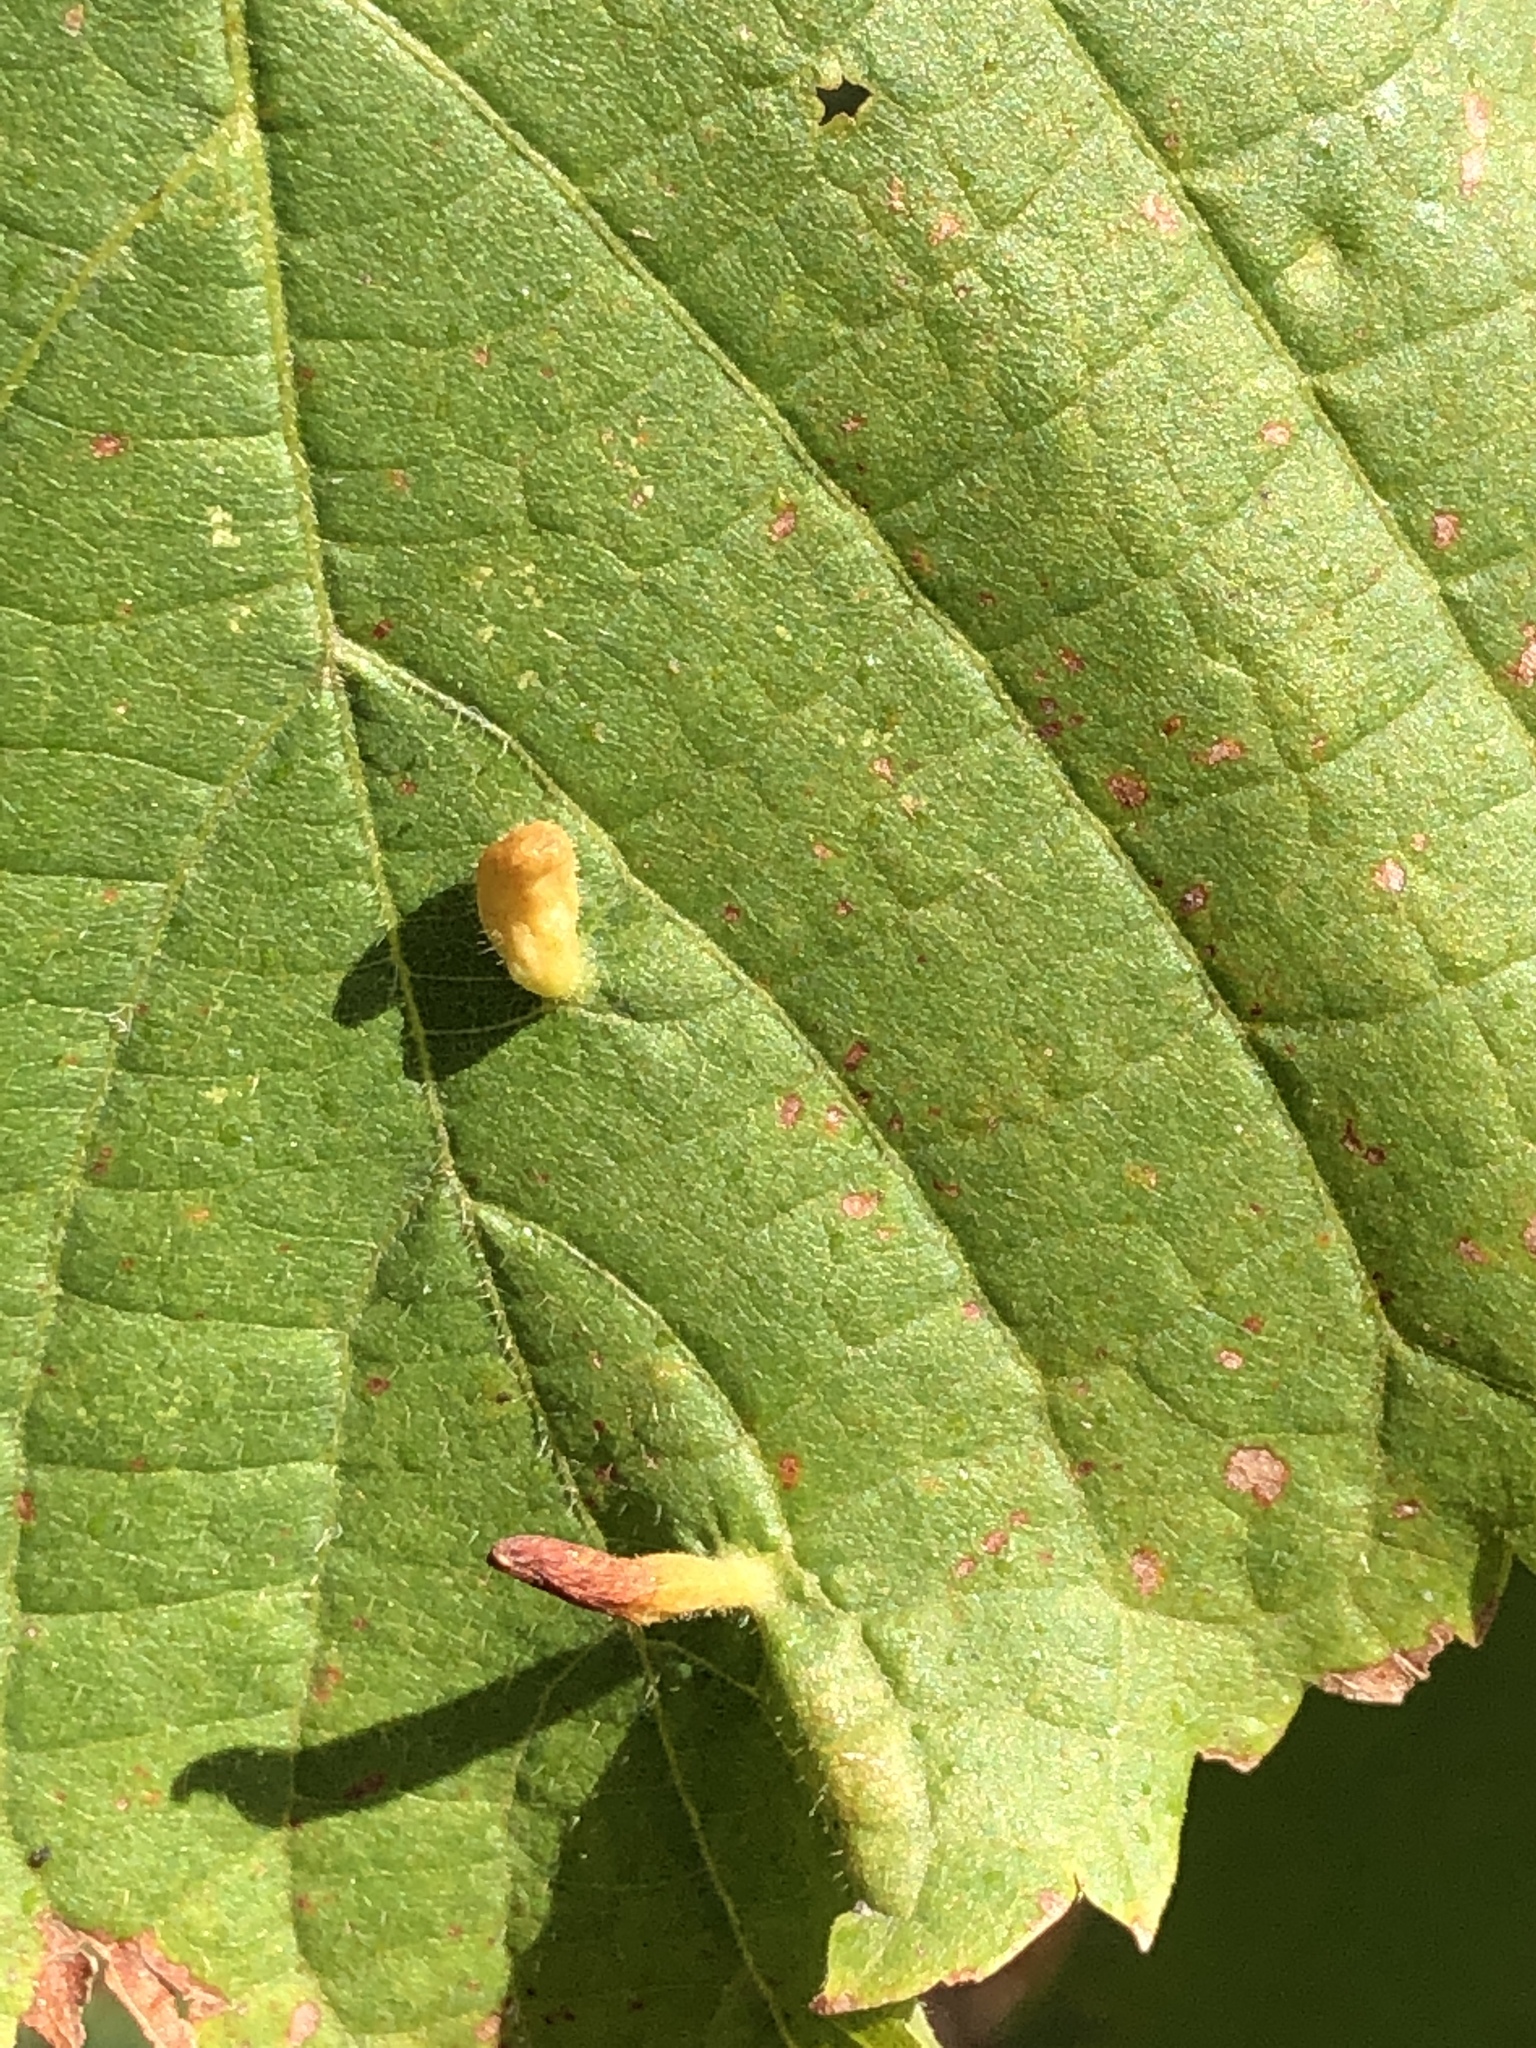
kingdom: Animalia
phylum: Arthropoda
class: Arachnida
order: Trombidiformes
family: Eriophyidae
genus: Eriophyes
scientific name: Eriophyes tiliae
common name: Red nail gall mite
